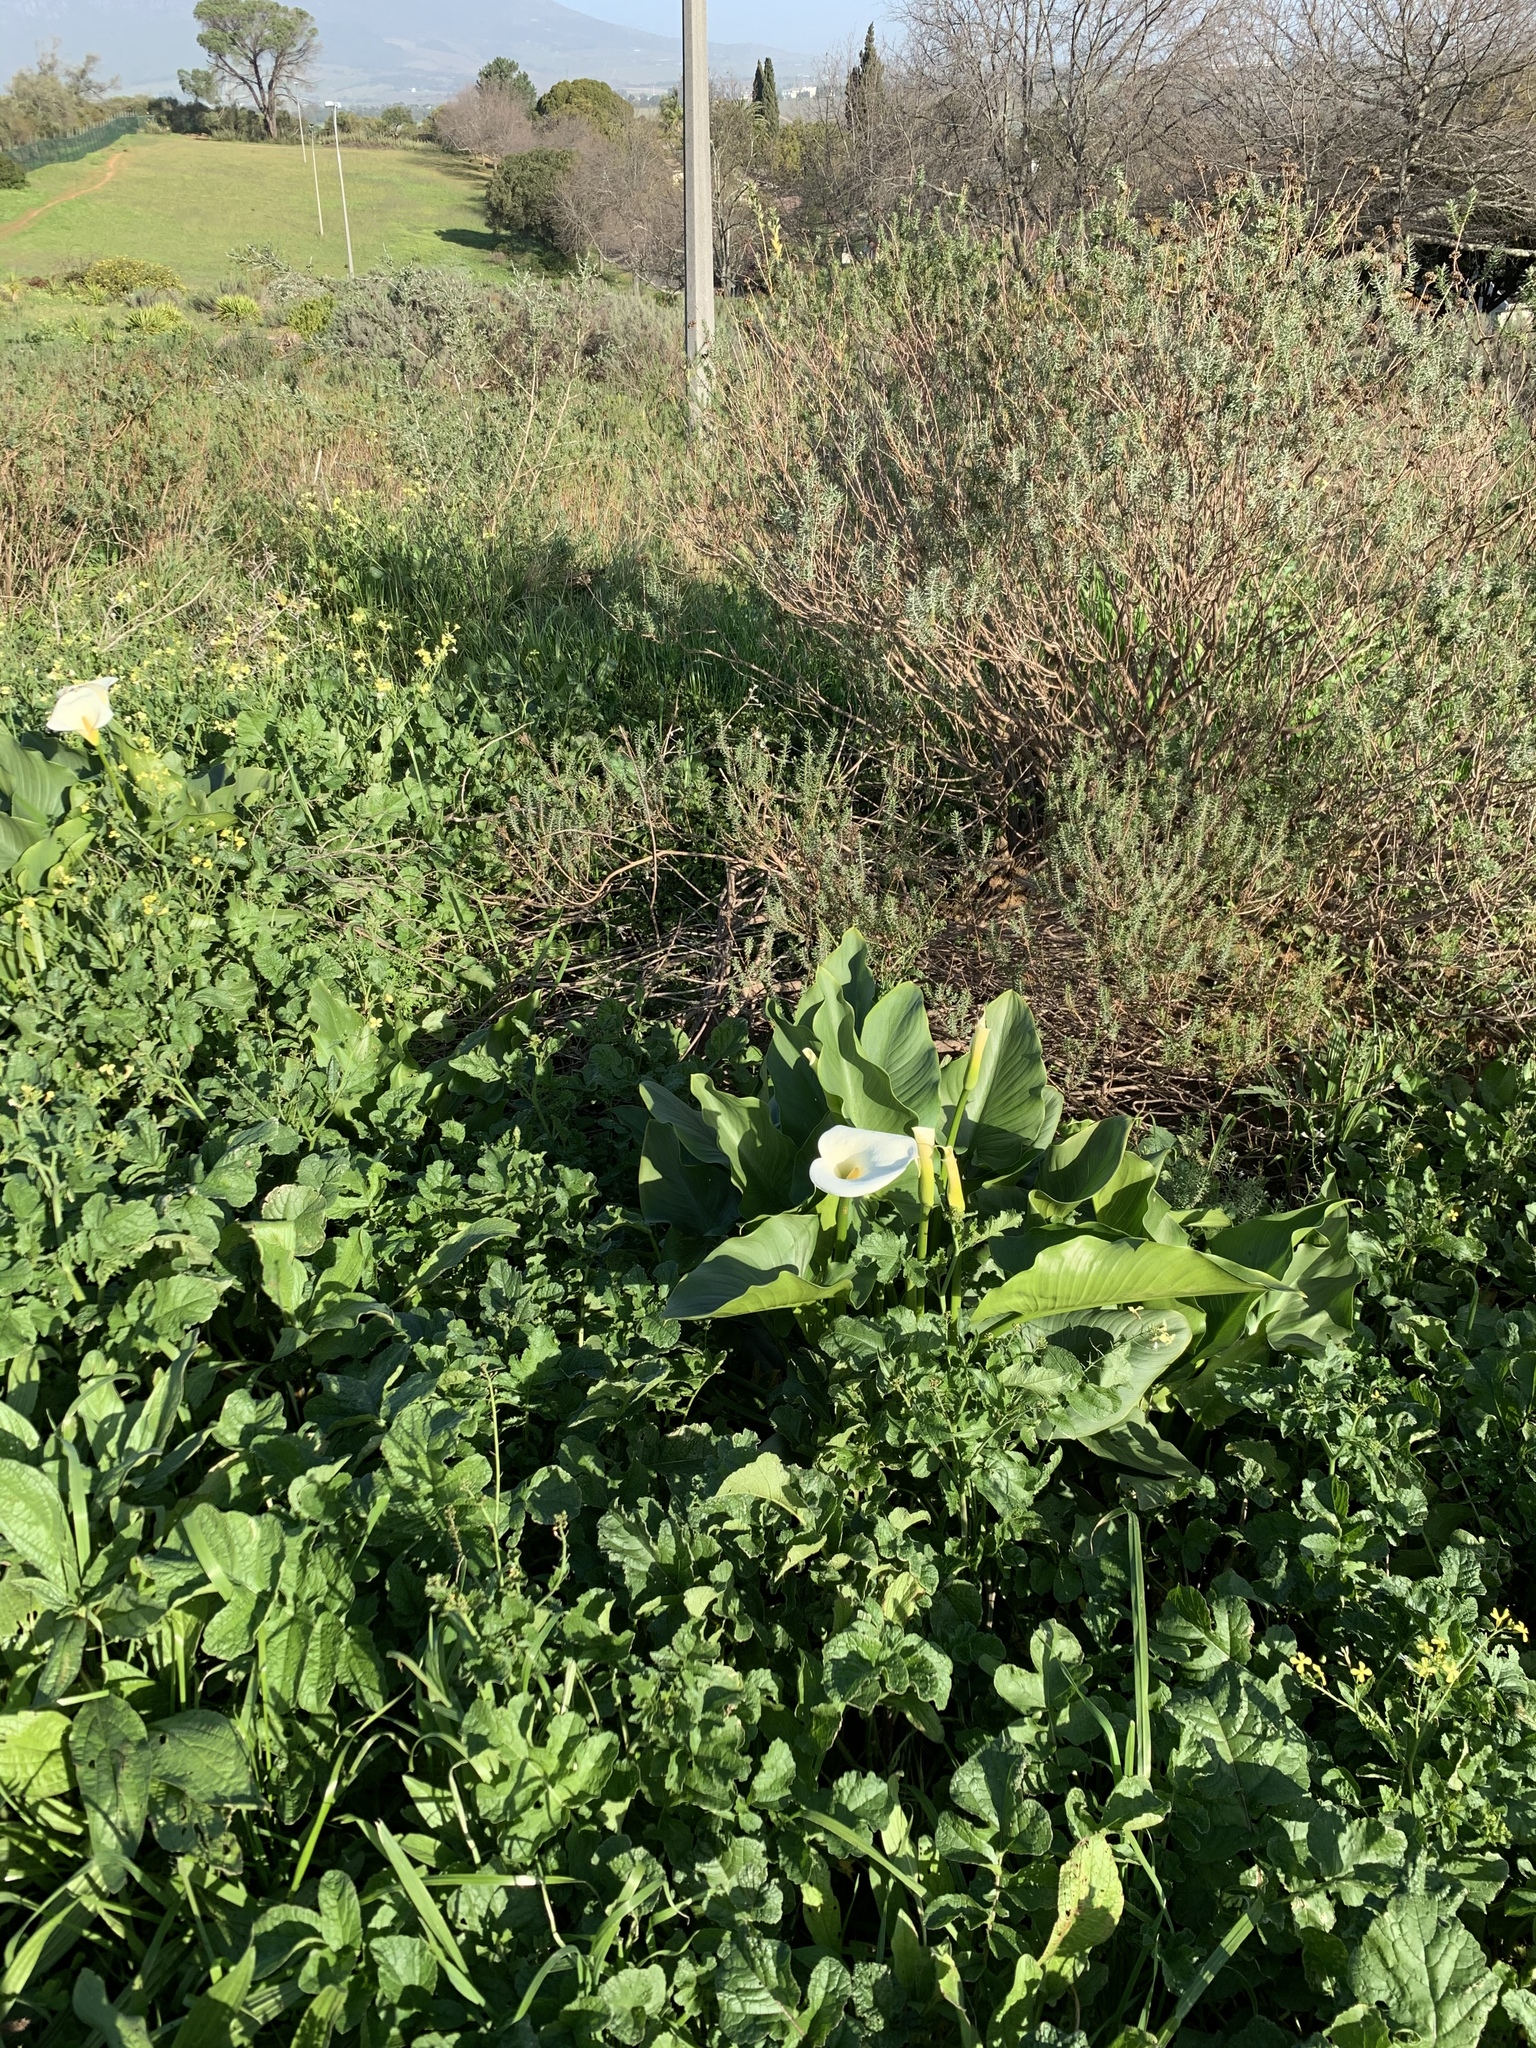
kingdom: Plantae
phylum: Tracheophyta
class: Liliopsida
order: Alismatales
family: Araceae
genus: Zantedeschia
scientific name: Zantedeschia aethiopica
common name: Altar-lily
